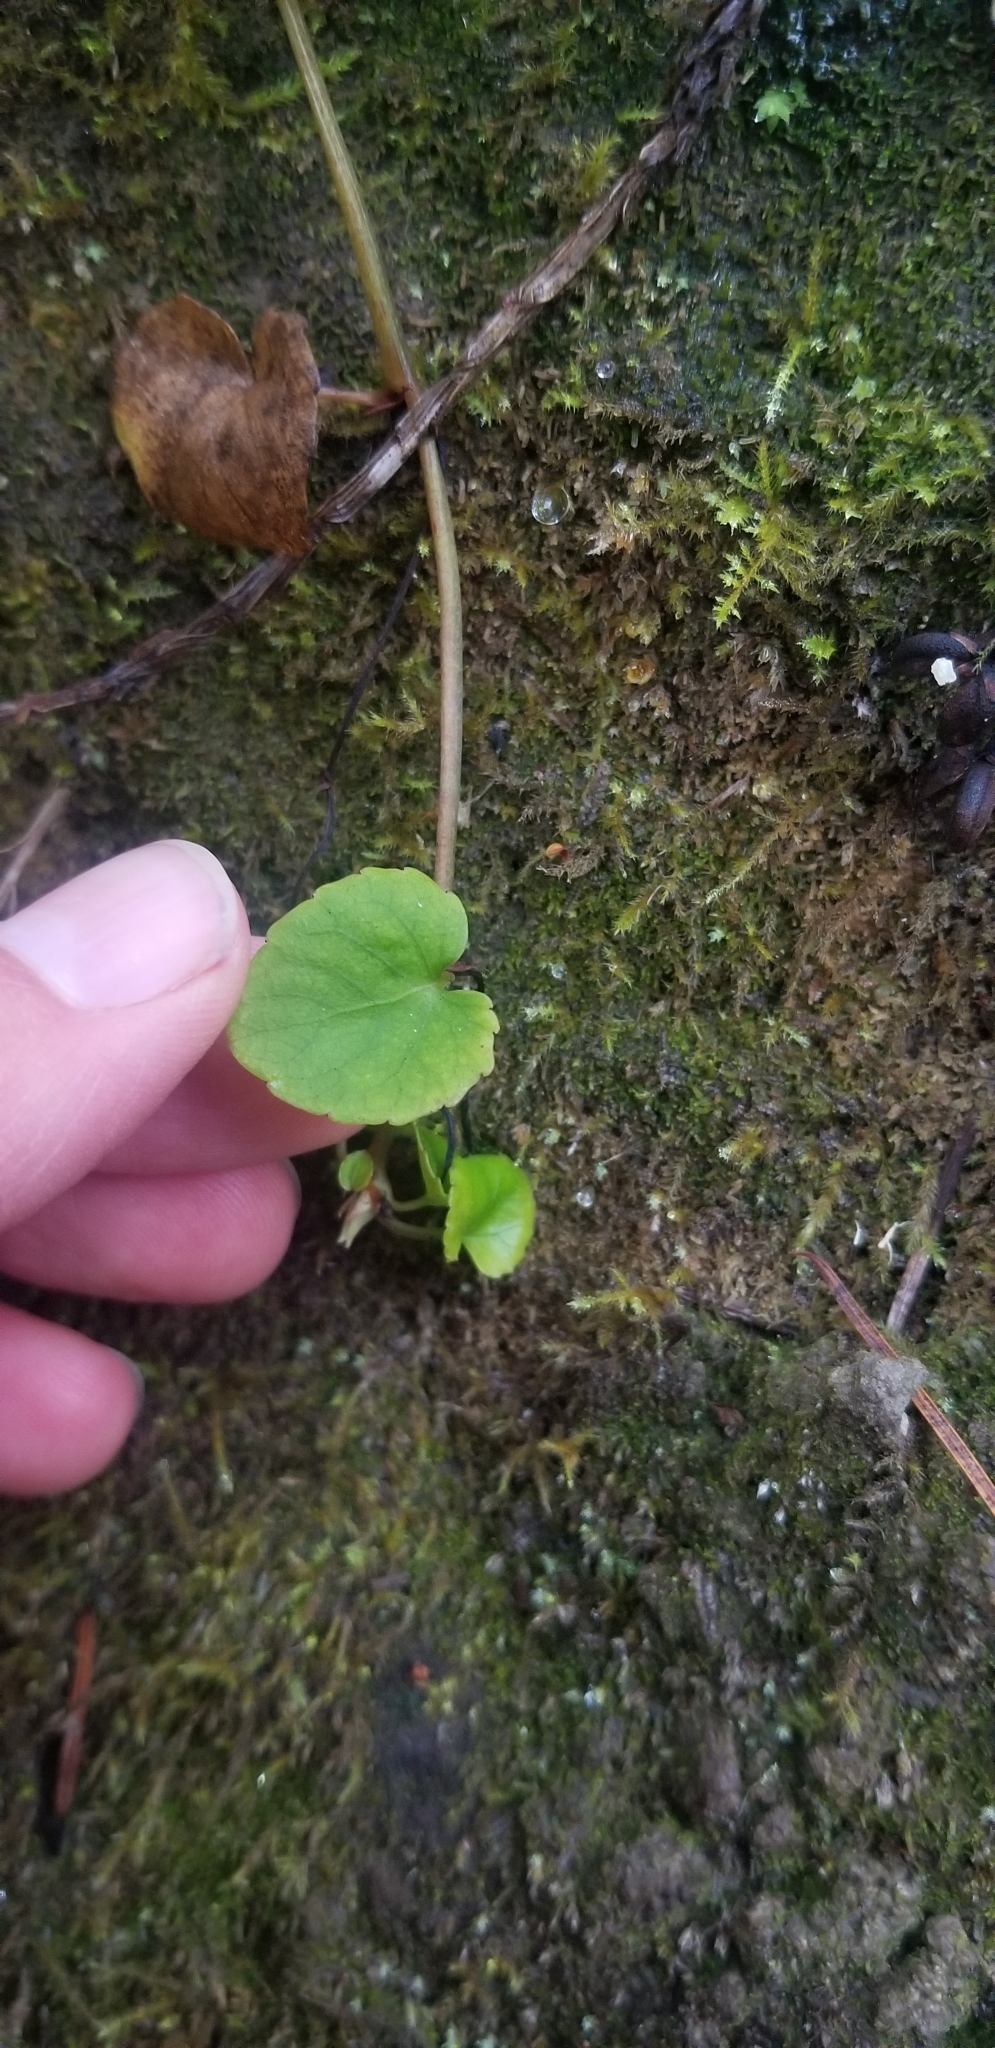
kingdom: Plantae
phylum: Tracheophyta
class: Magnoliopsida
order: Malpighiales
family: Violaceae
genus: Viola
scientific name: Viola sempervirens
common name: Evergreen violet
